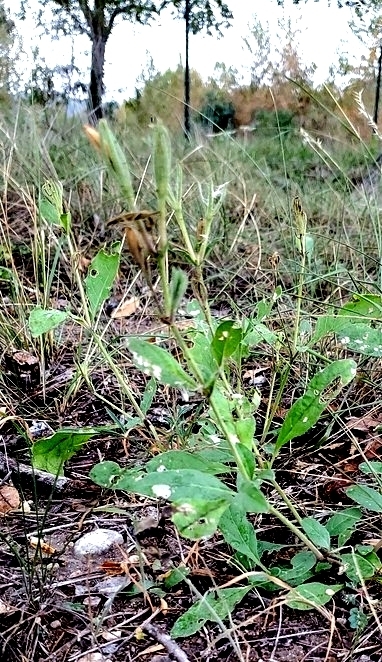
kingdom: Plantae
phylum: Tracheophyta
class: Magnoliopsida
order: Lamiales
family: Acanthaceae
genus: Ruellia
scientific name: Ruellia ciliatiflora
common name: Hairyflower wild petunia
